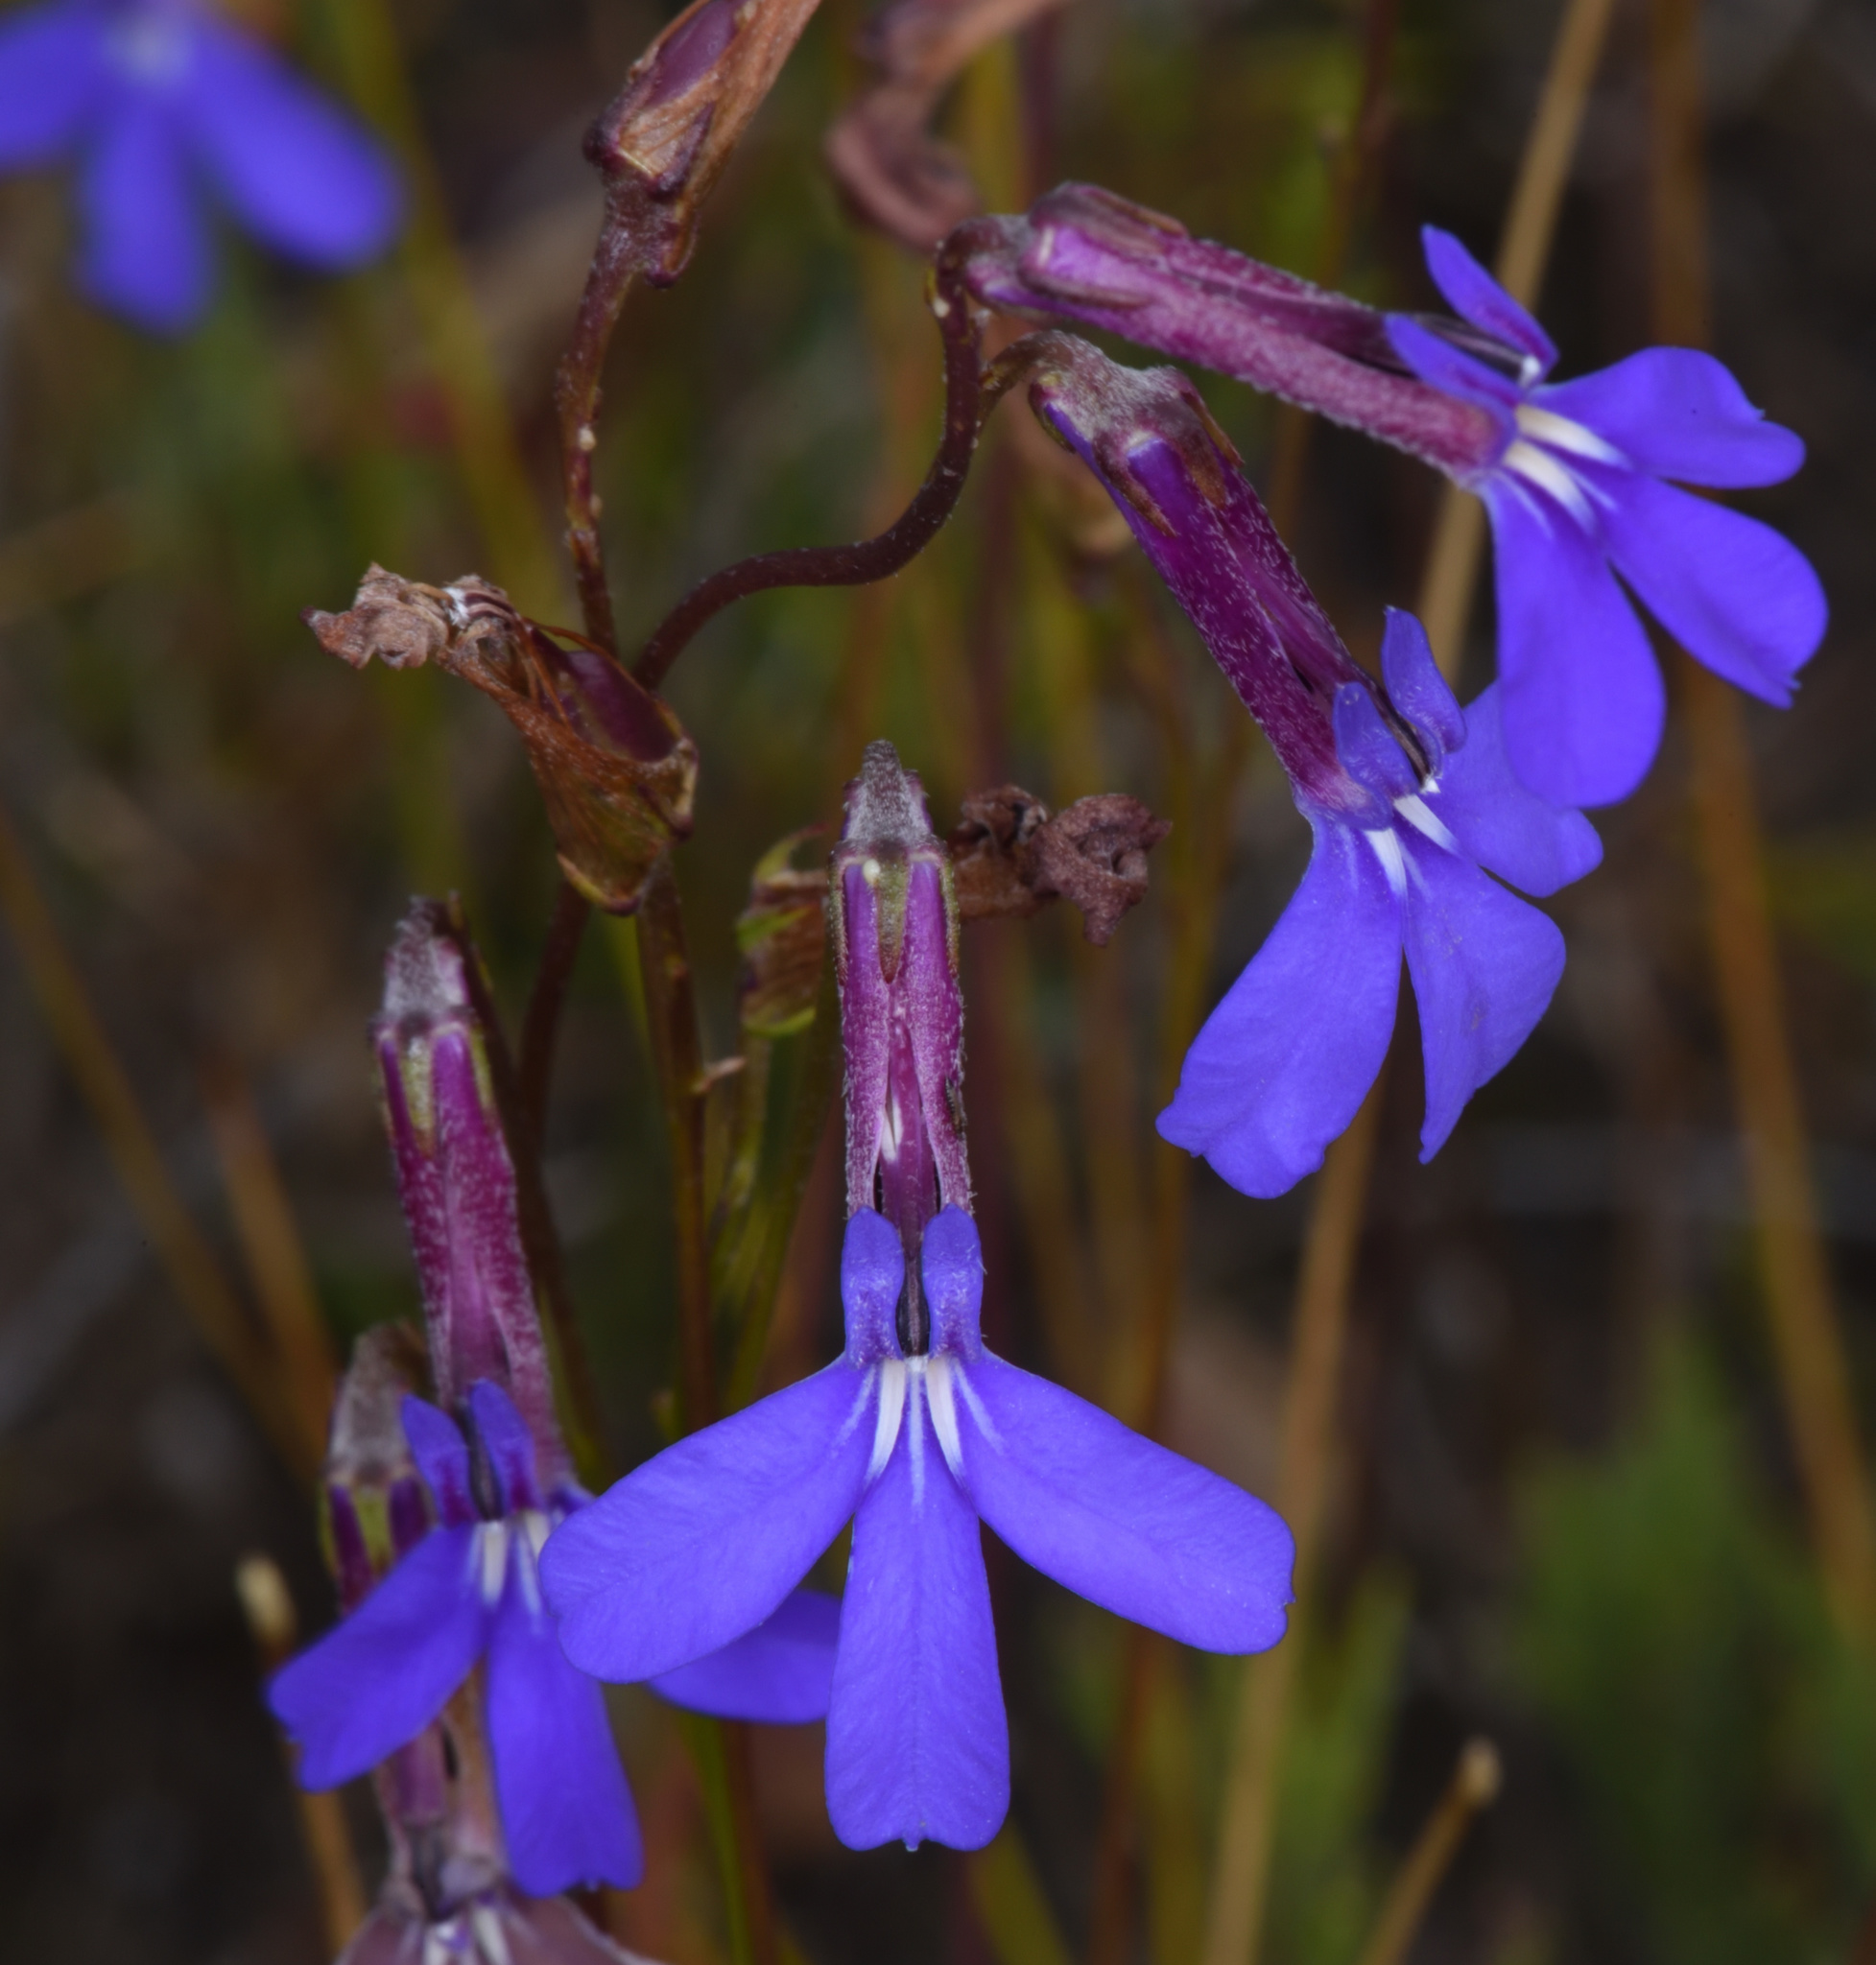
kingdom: Plantae
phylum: Tracheophyta
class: Magnoliopsida
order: Asterales
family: Campanulaceae
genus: Lobelia
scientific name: Lobelia tomentosa
